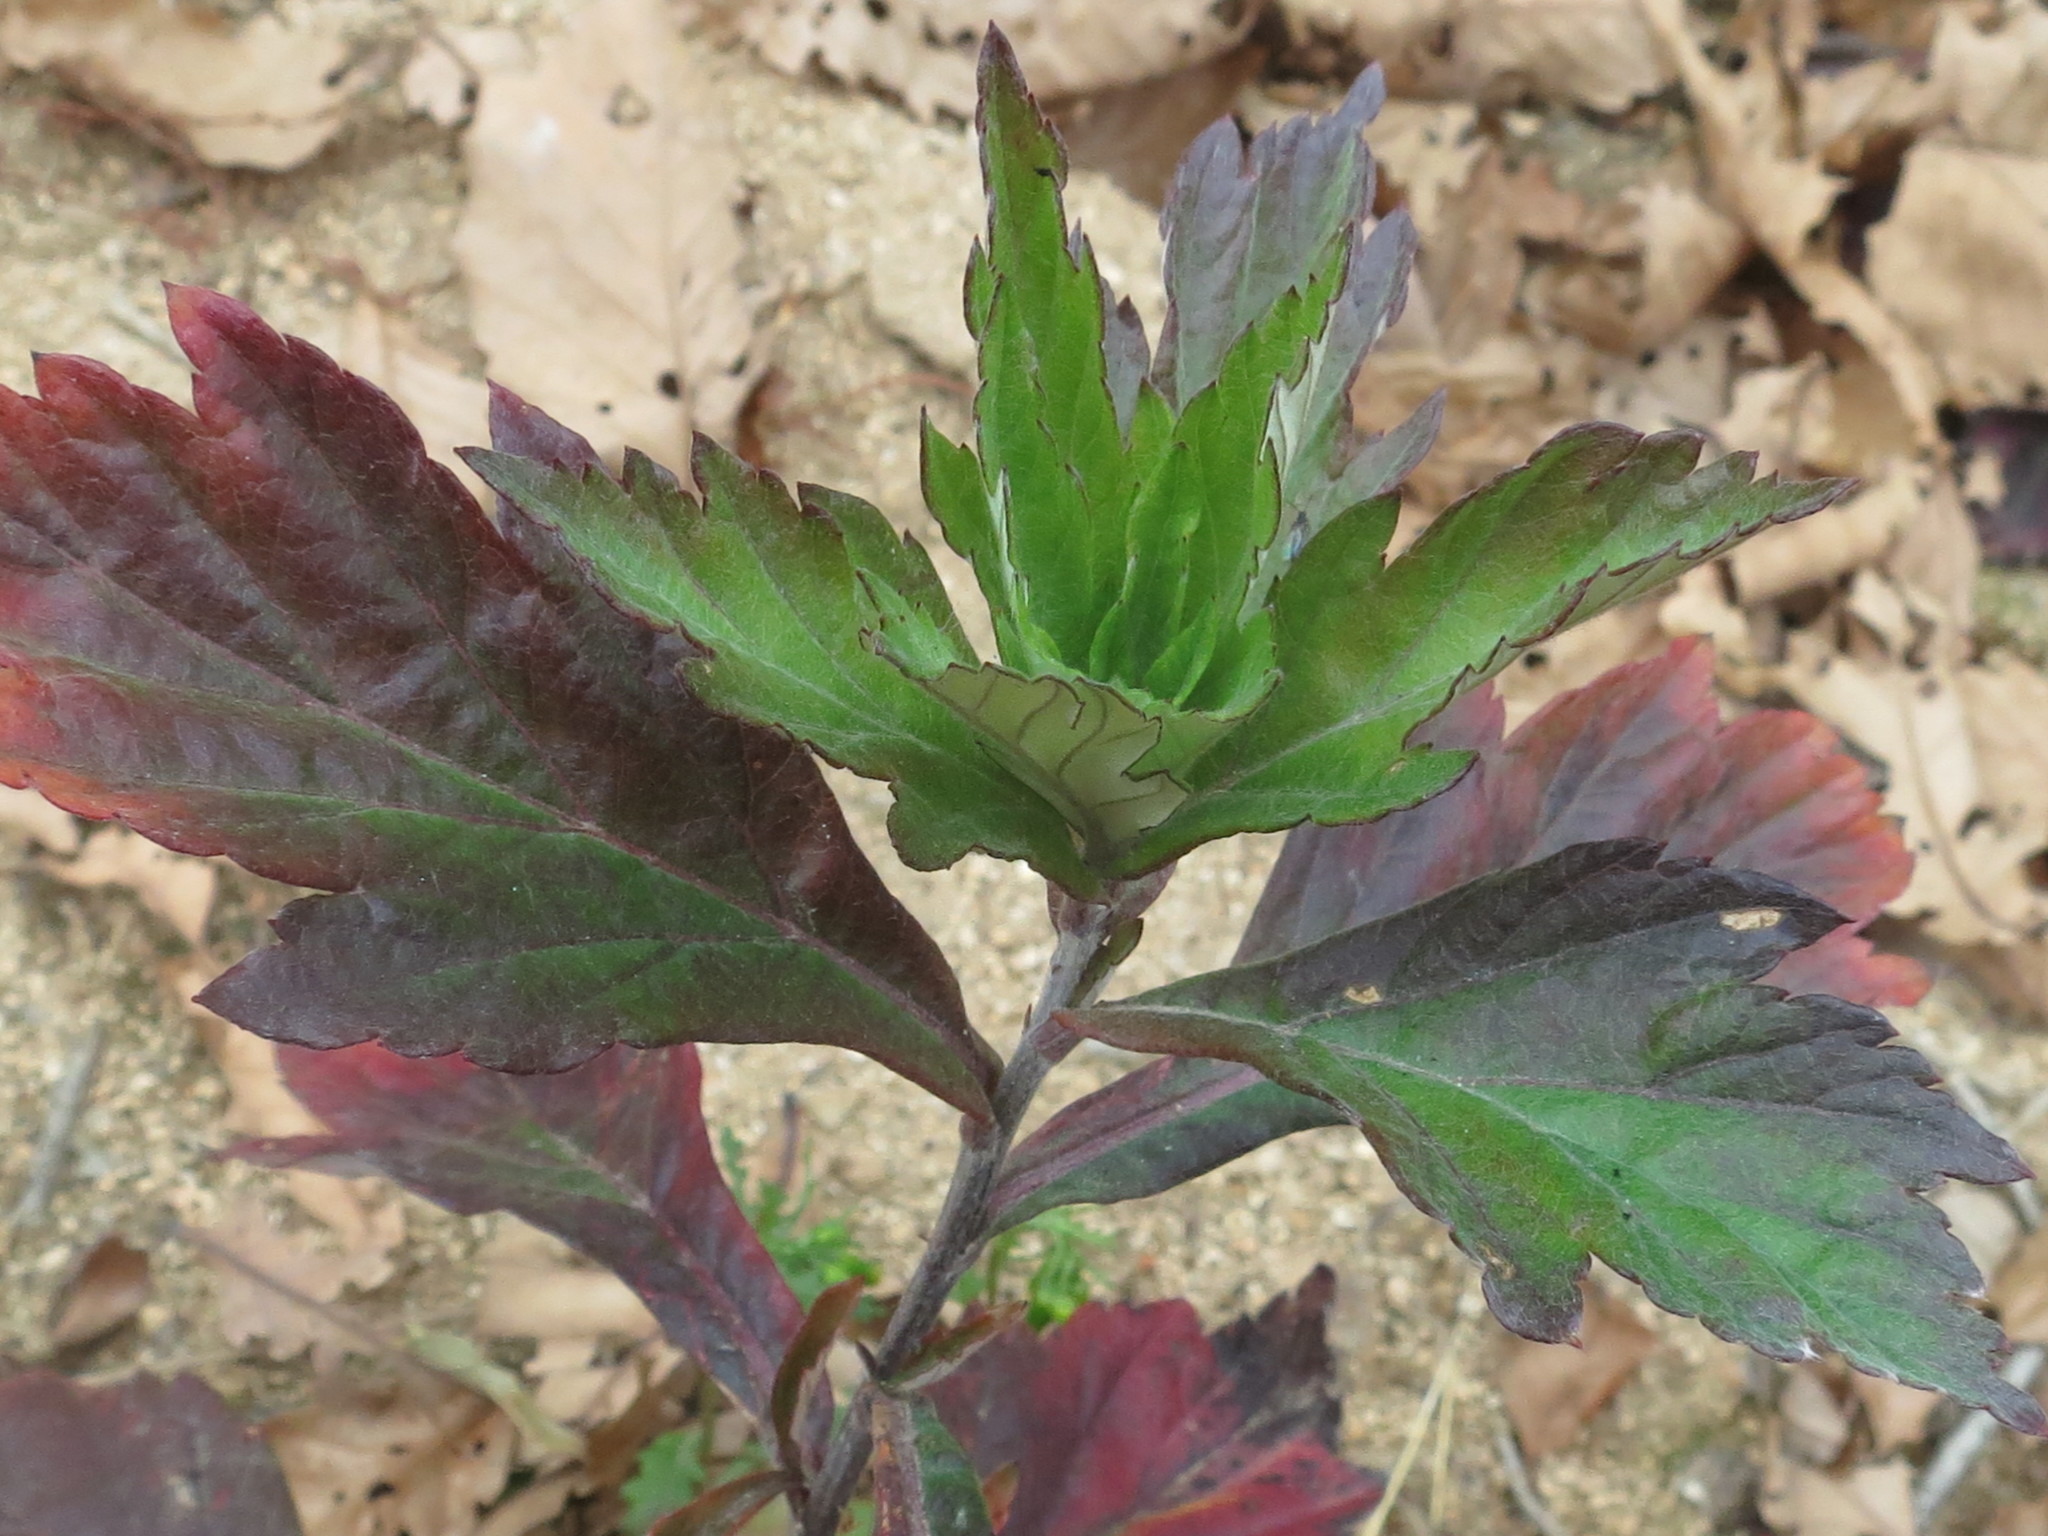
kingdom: Plantae
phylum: Tracheophyta
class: Magnoliopsida
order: Asterales
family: Asteraceae
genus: Artemisia
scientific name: Artemisia stolonifera
